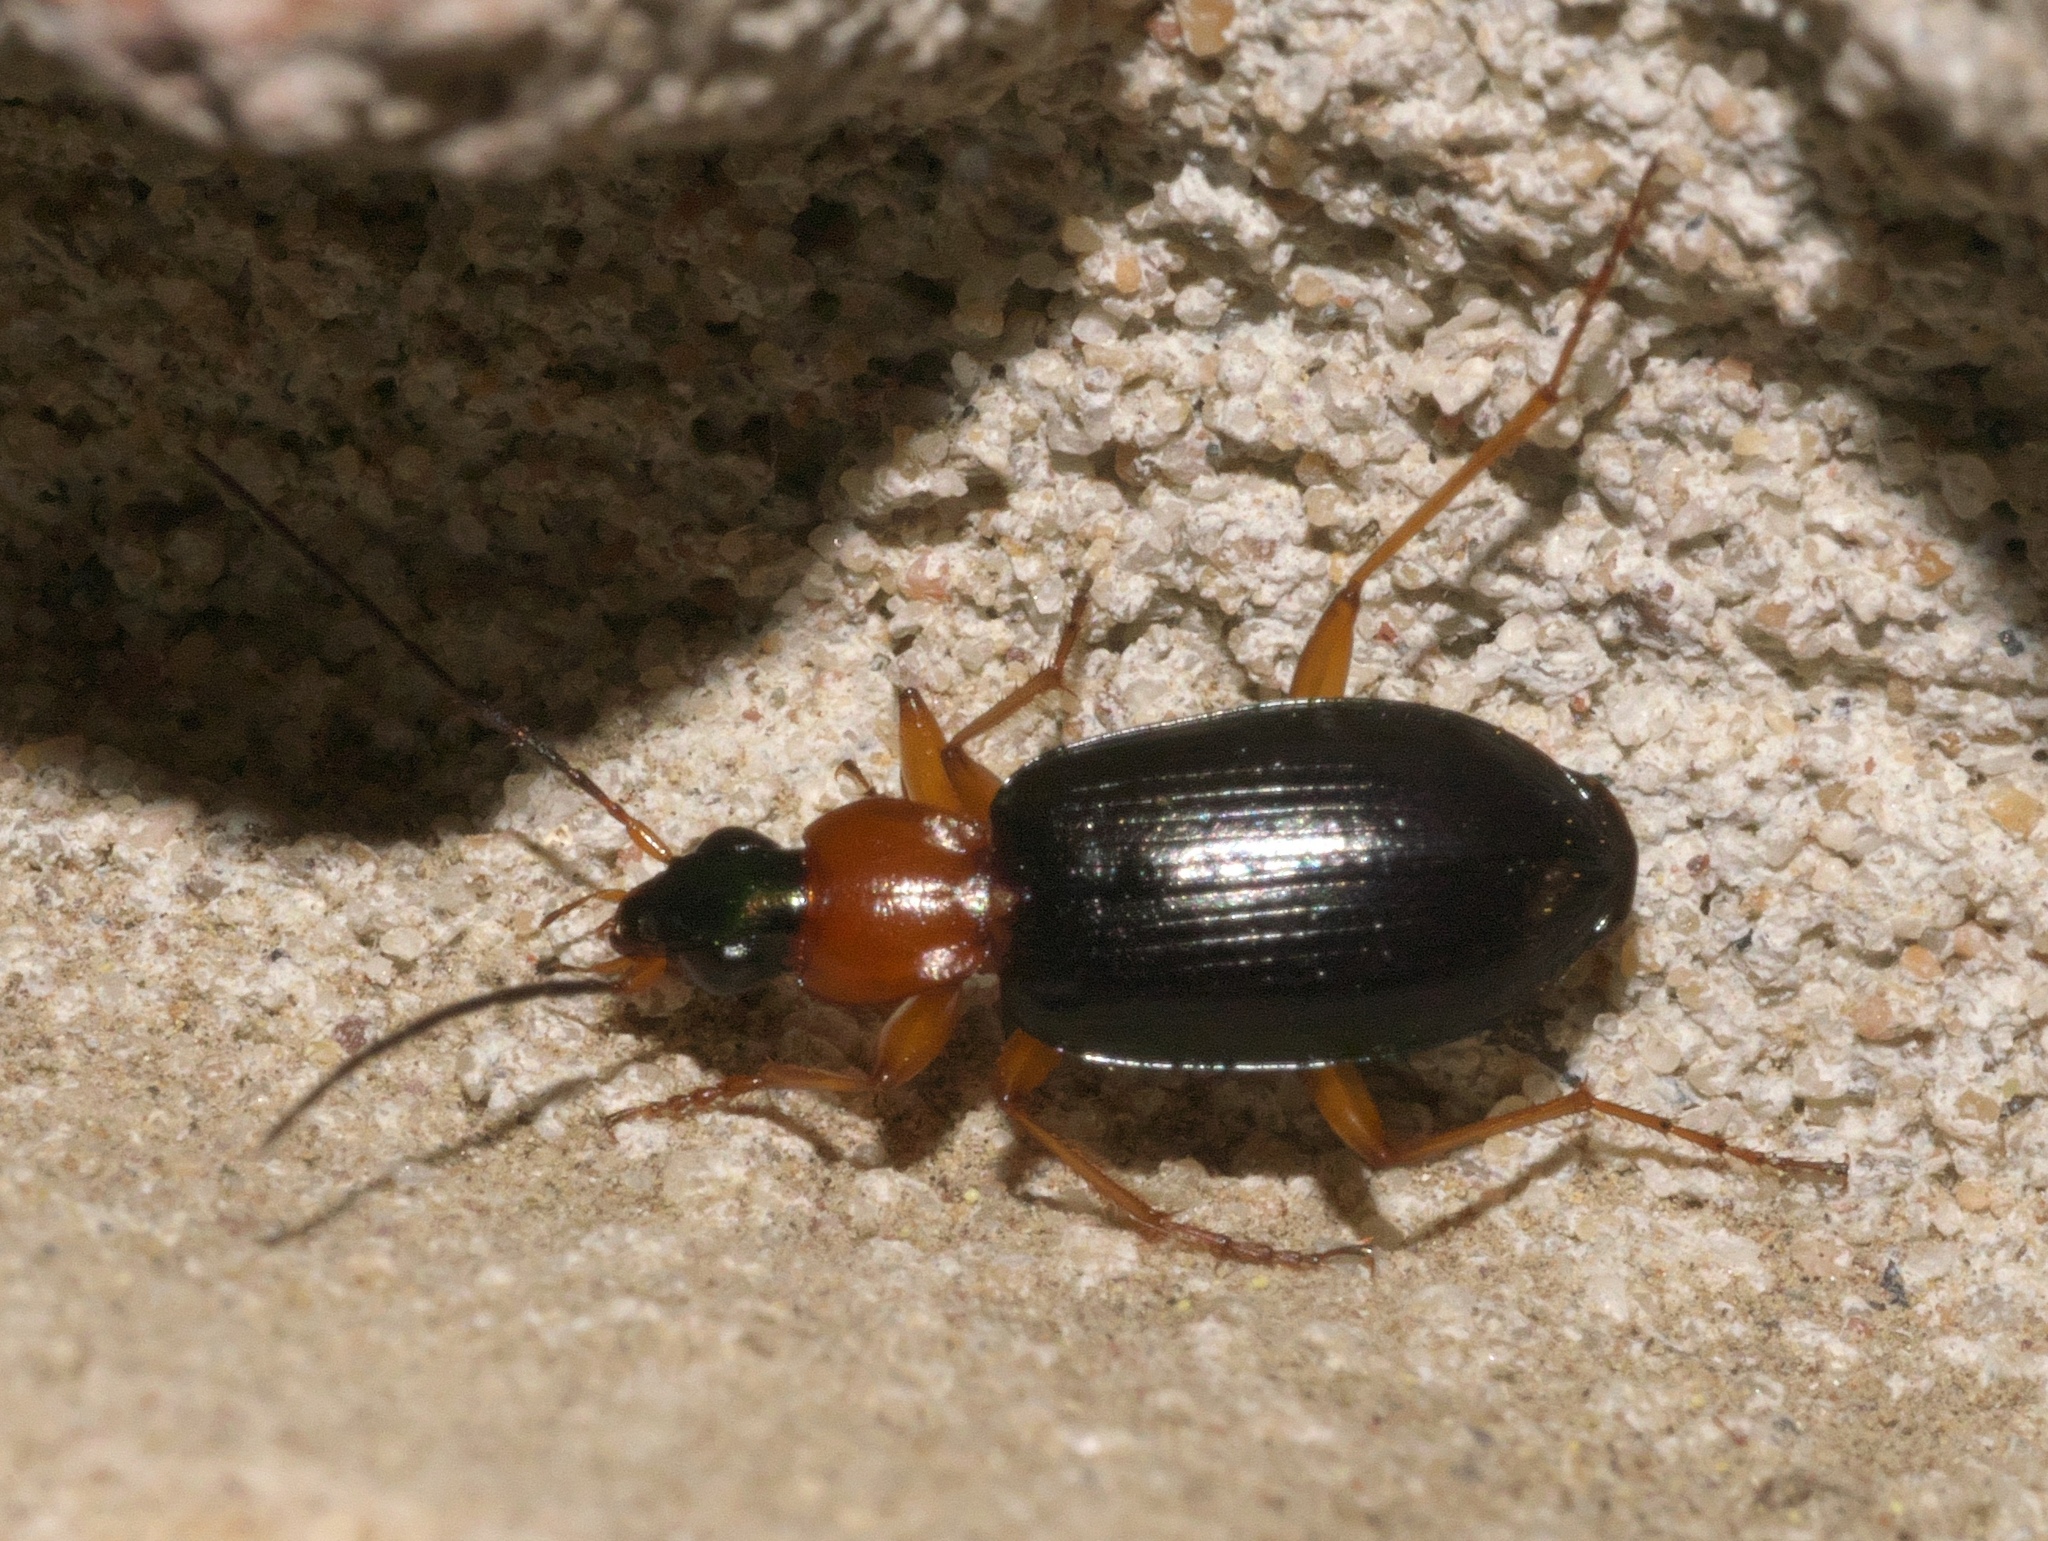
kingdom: Animalia
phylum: Arthropoda
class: Insecta
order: Coleoptera
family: Carabidae
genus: Agonum
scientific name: Agonum decorum
